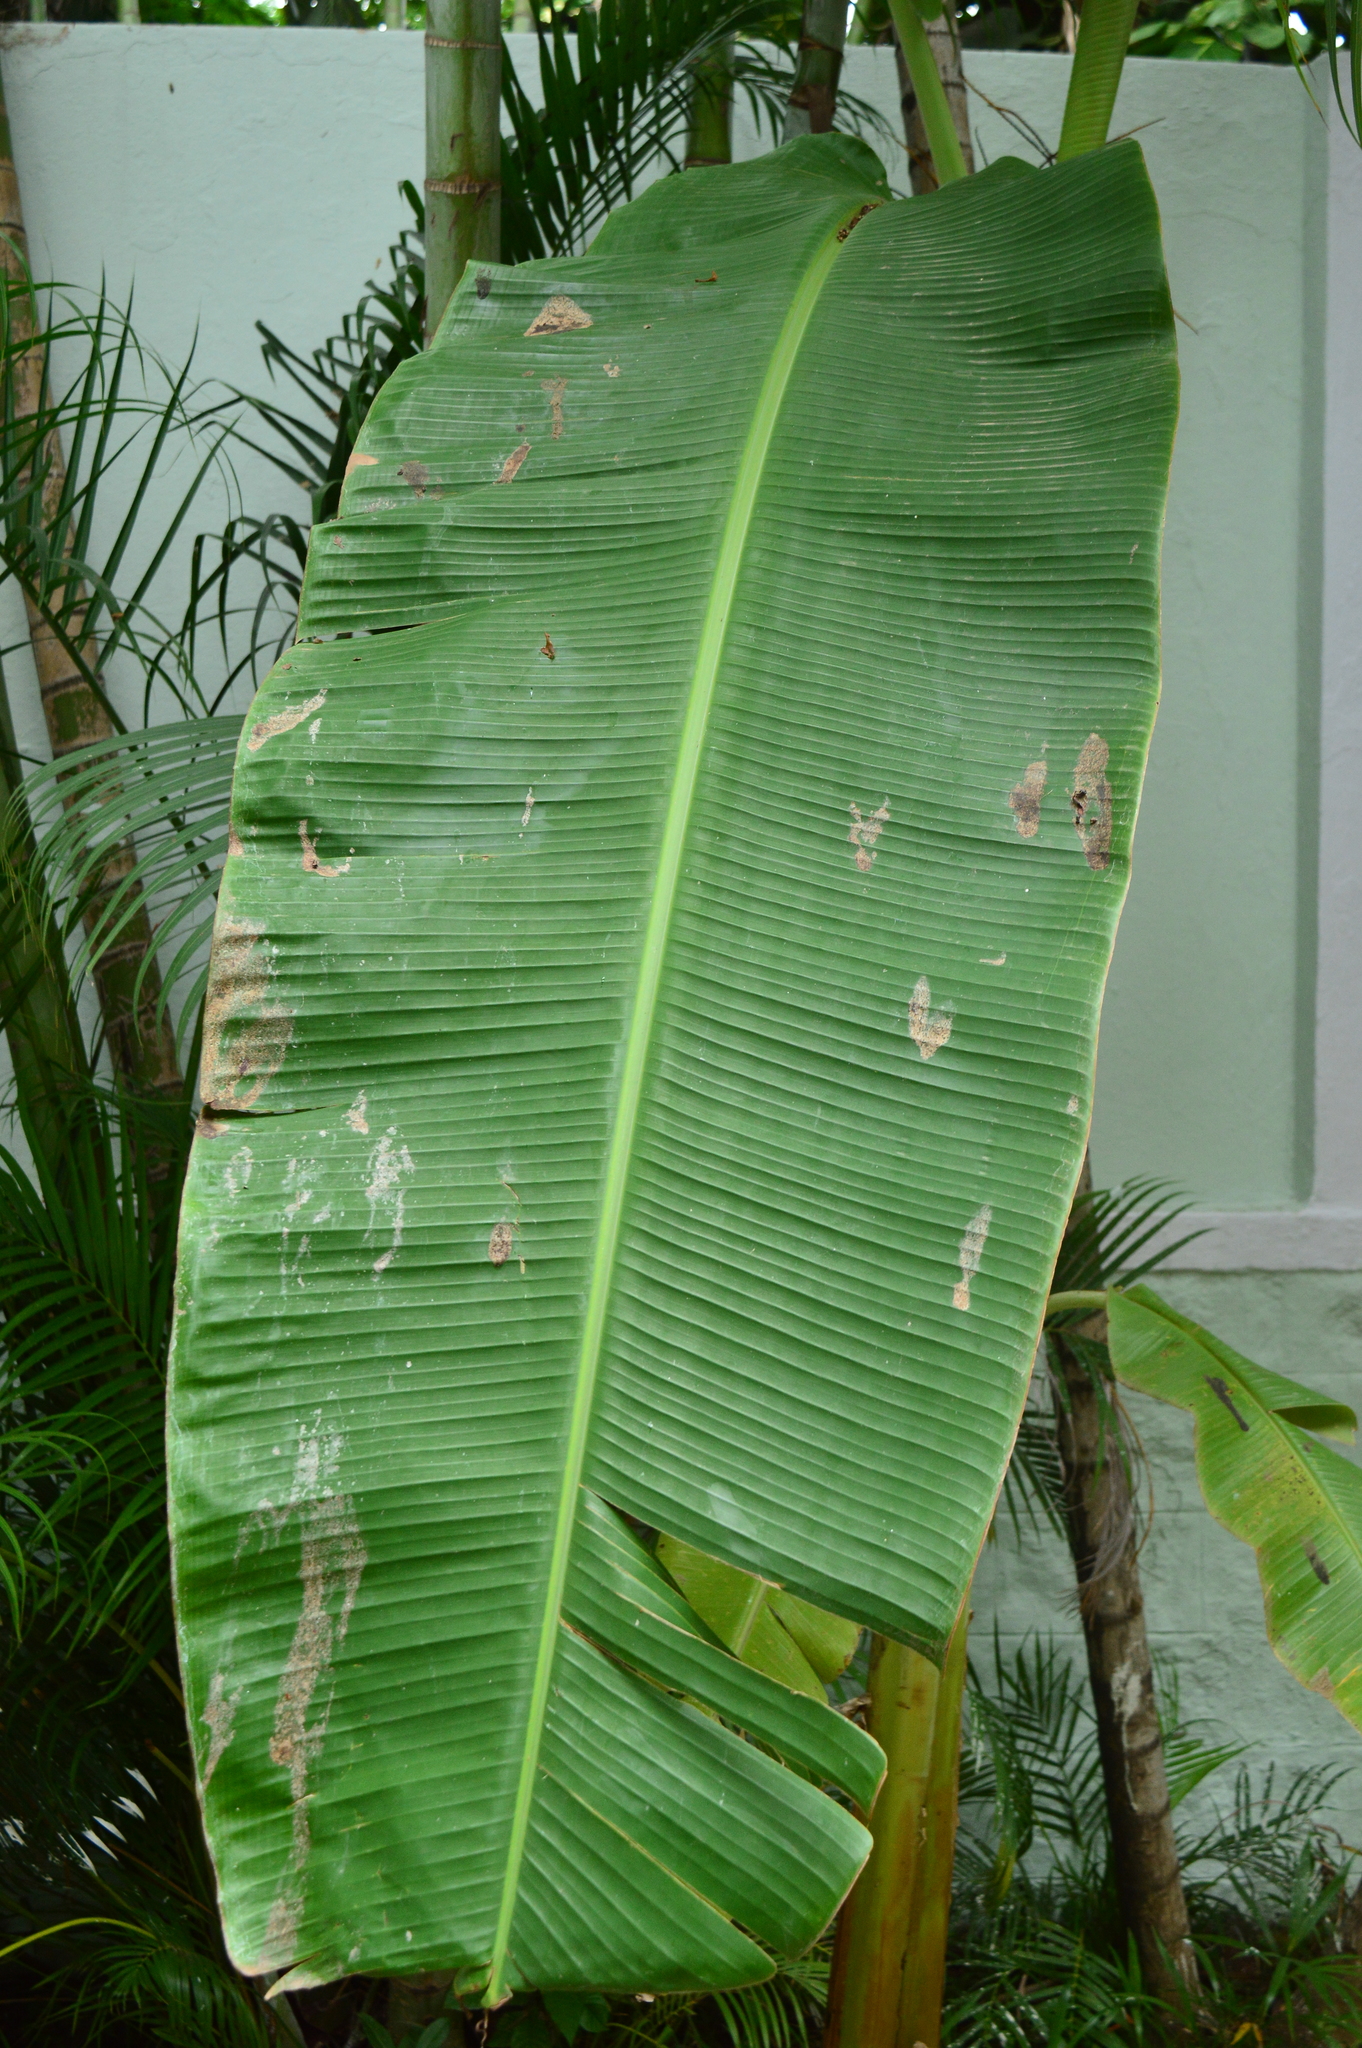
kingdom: Plantae
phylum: Tracheophyta
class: Liliopsida
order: Zingiberales
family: Musaceae
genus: Musa
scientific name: Musa paradisiaca
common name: French plantain
